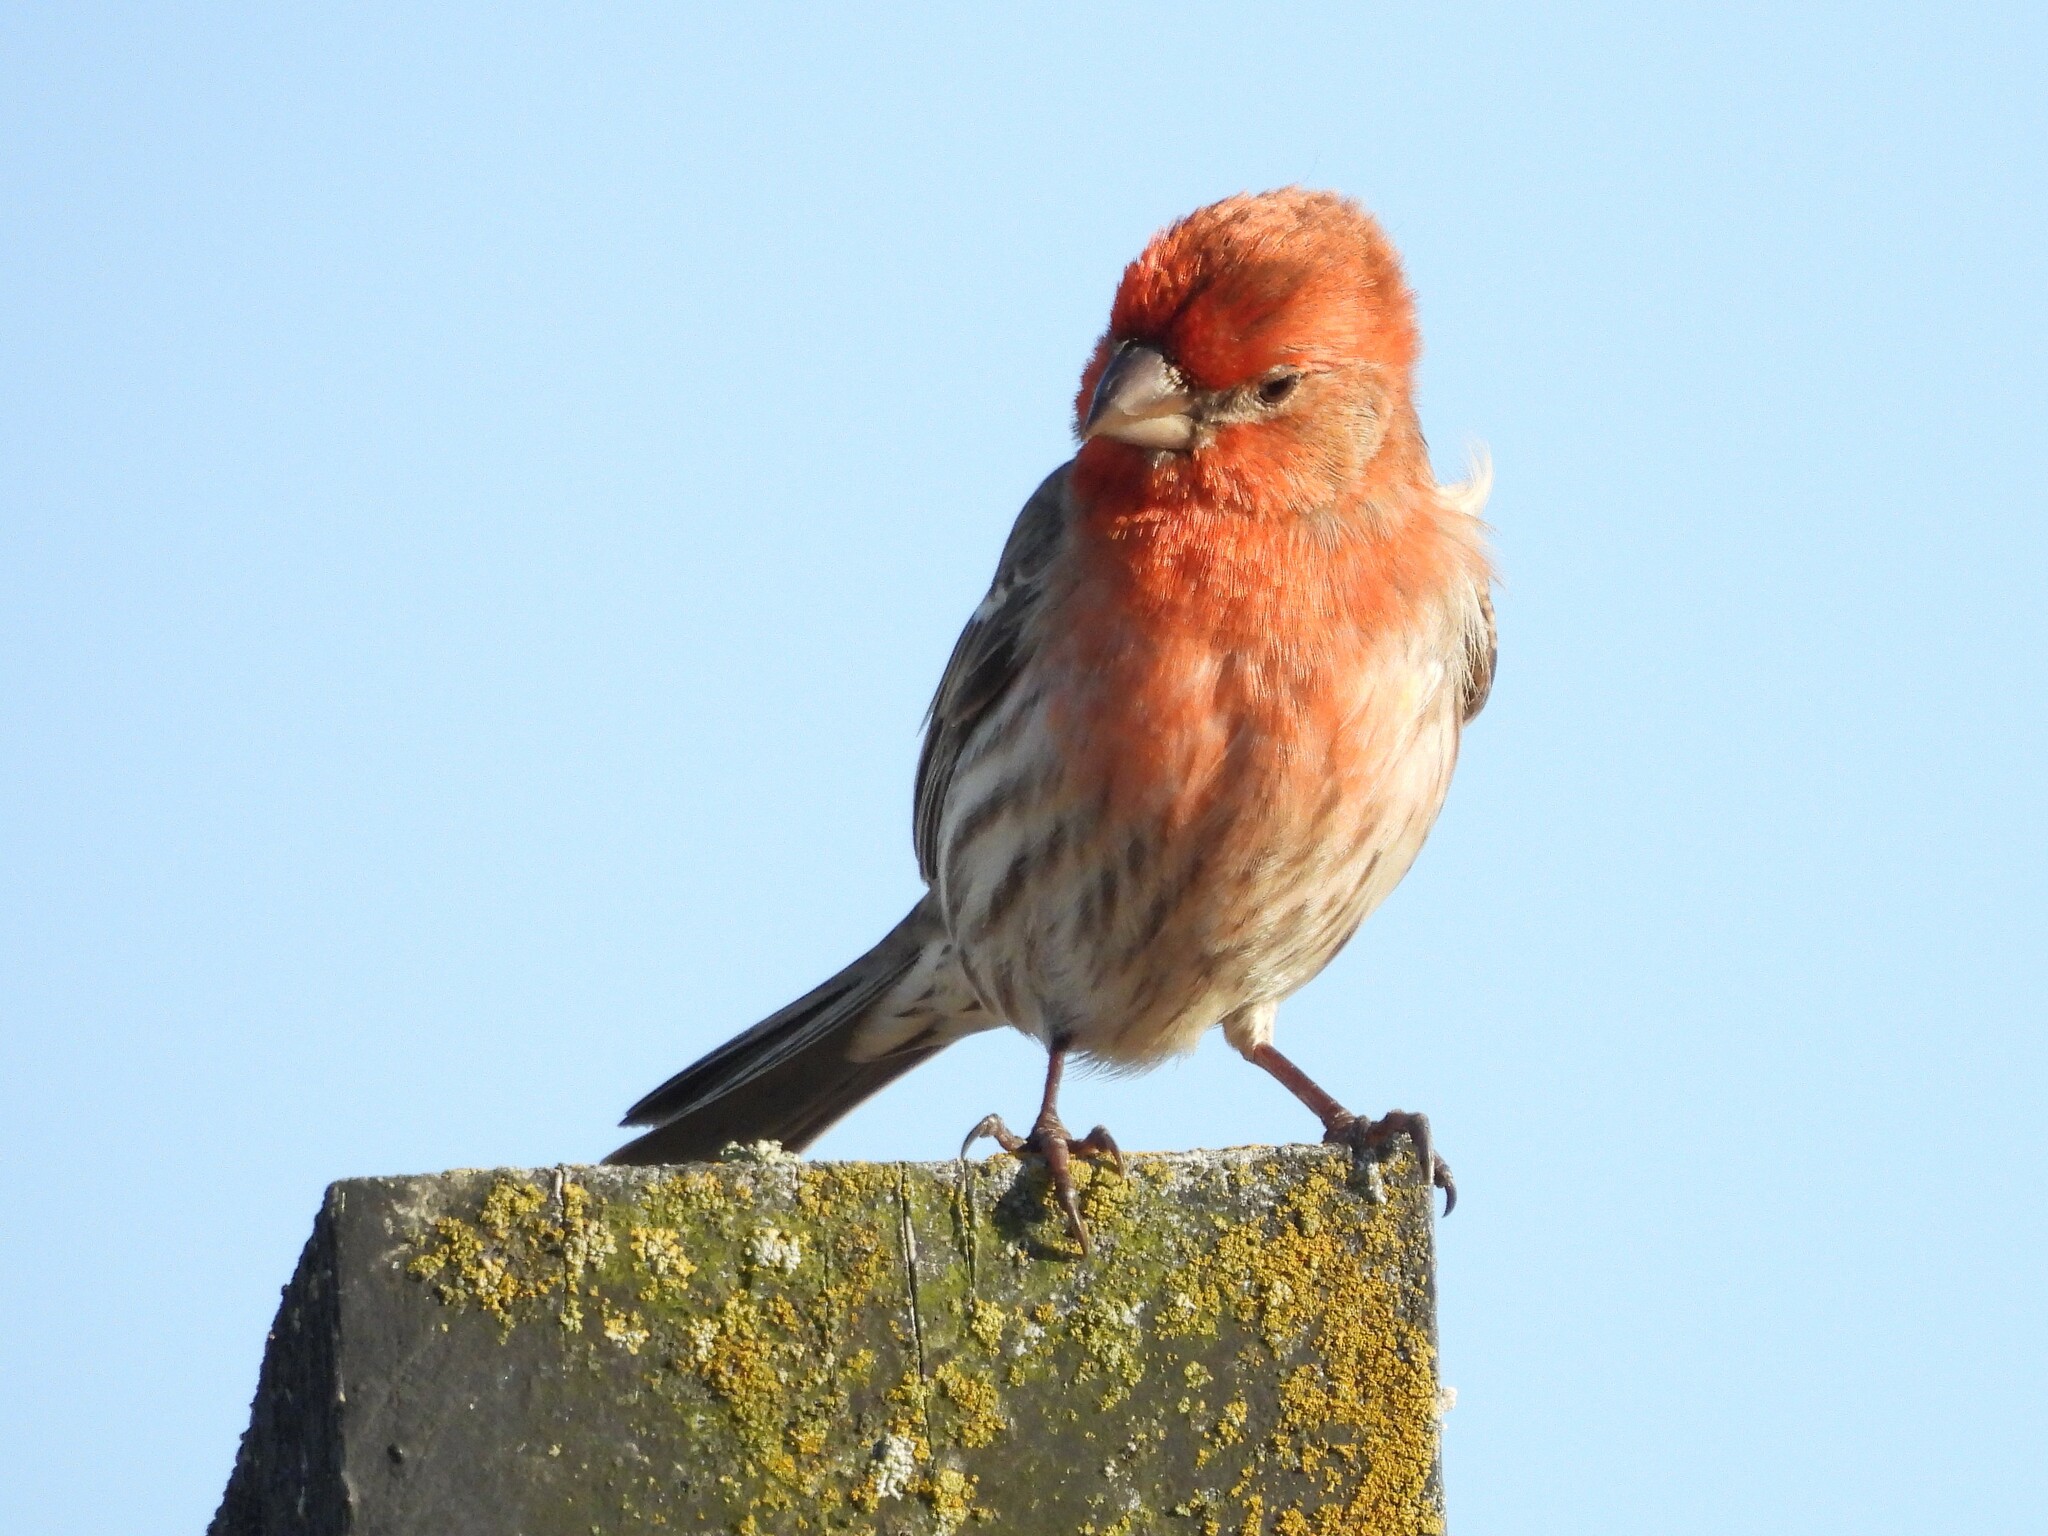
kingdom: Animalia
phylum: Chordata
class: Aves
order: Passeriformes
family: Fringillidae
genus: Haemorhous
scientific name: Haemorhous mexicanus
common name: House finch
